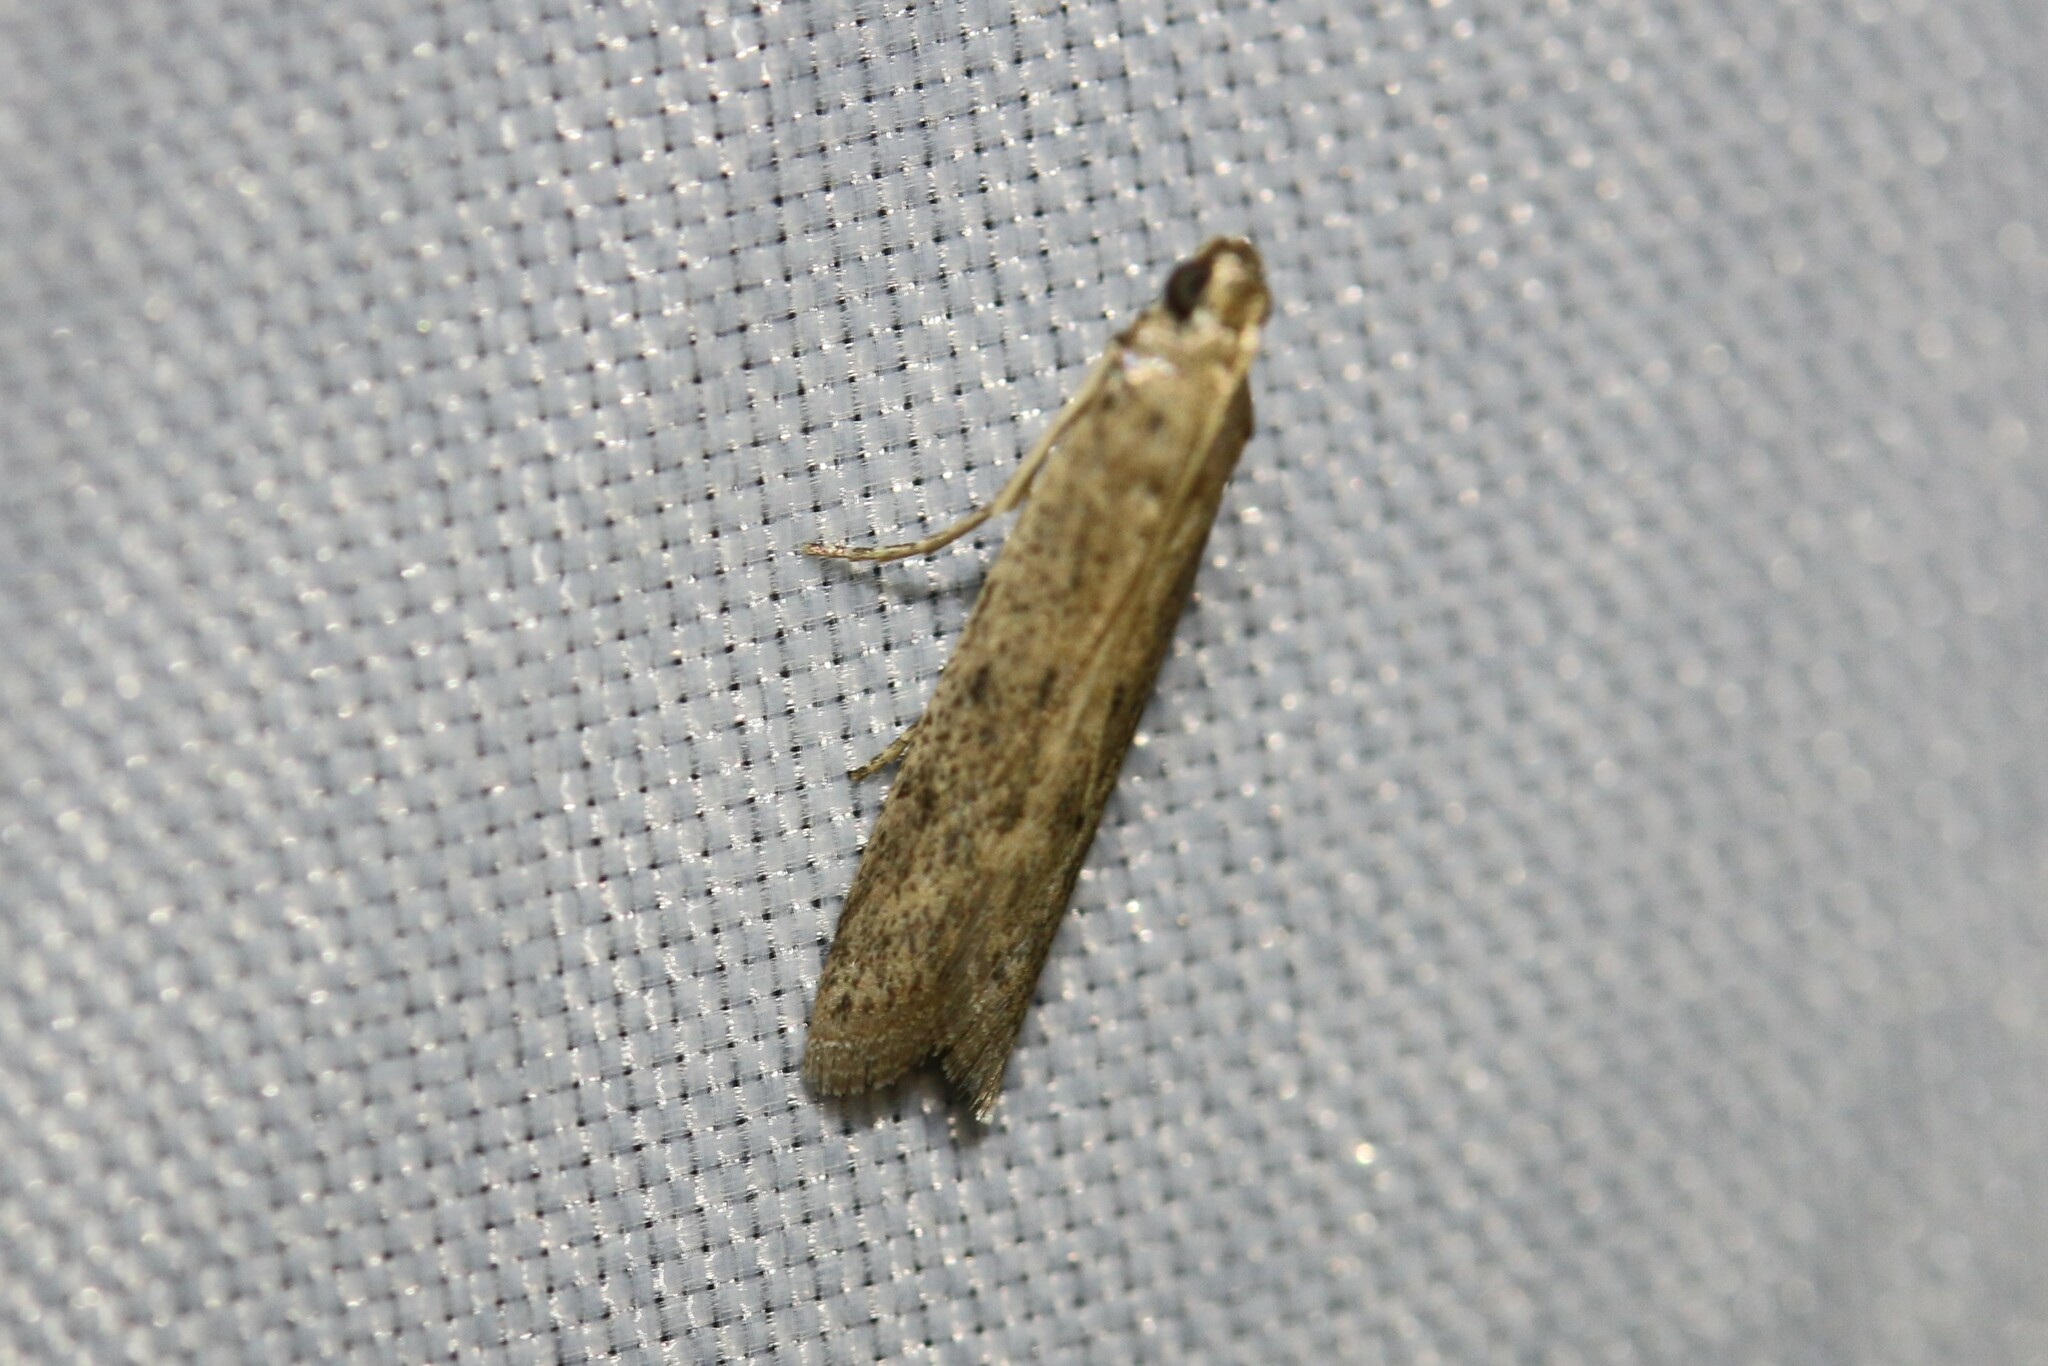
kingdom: Animalia
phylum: Arthropoda
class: Insecta
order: Lepidoptera
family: Pyralidae
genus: Phycitodes
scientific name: Phycitodes
